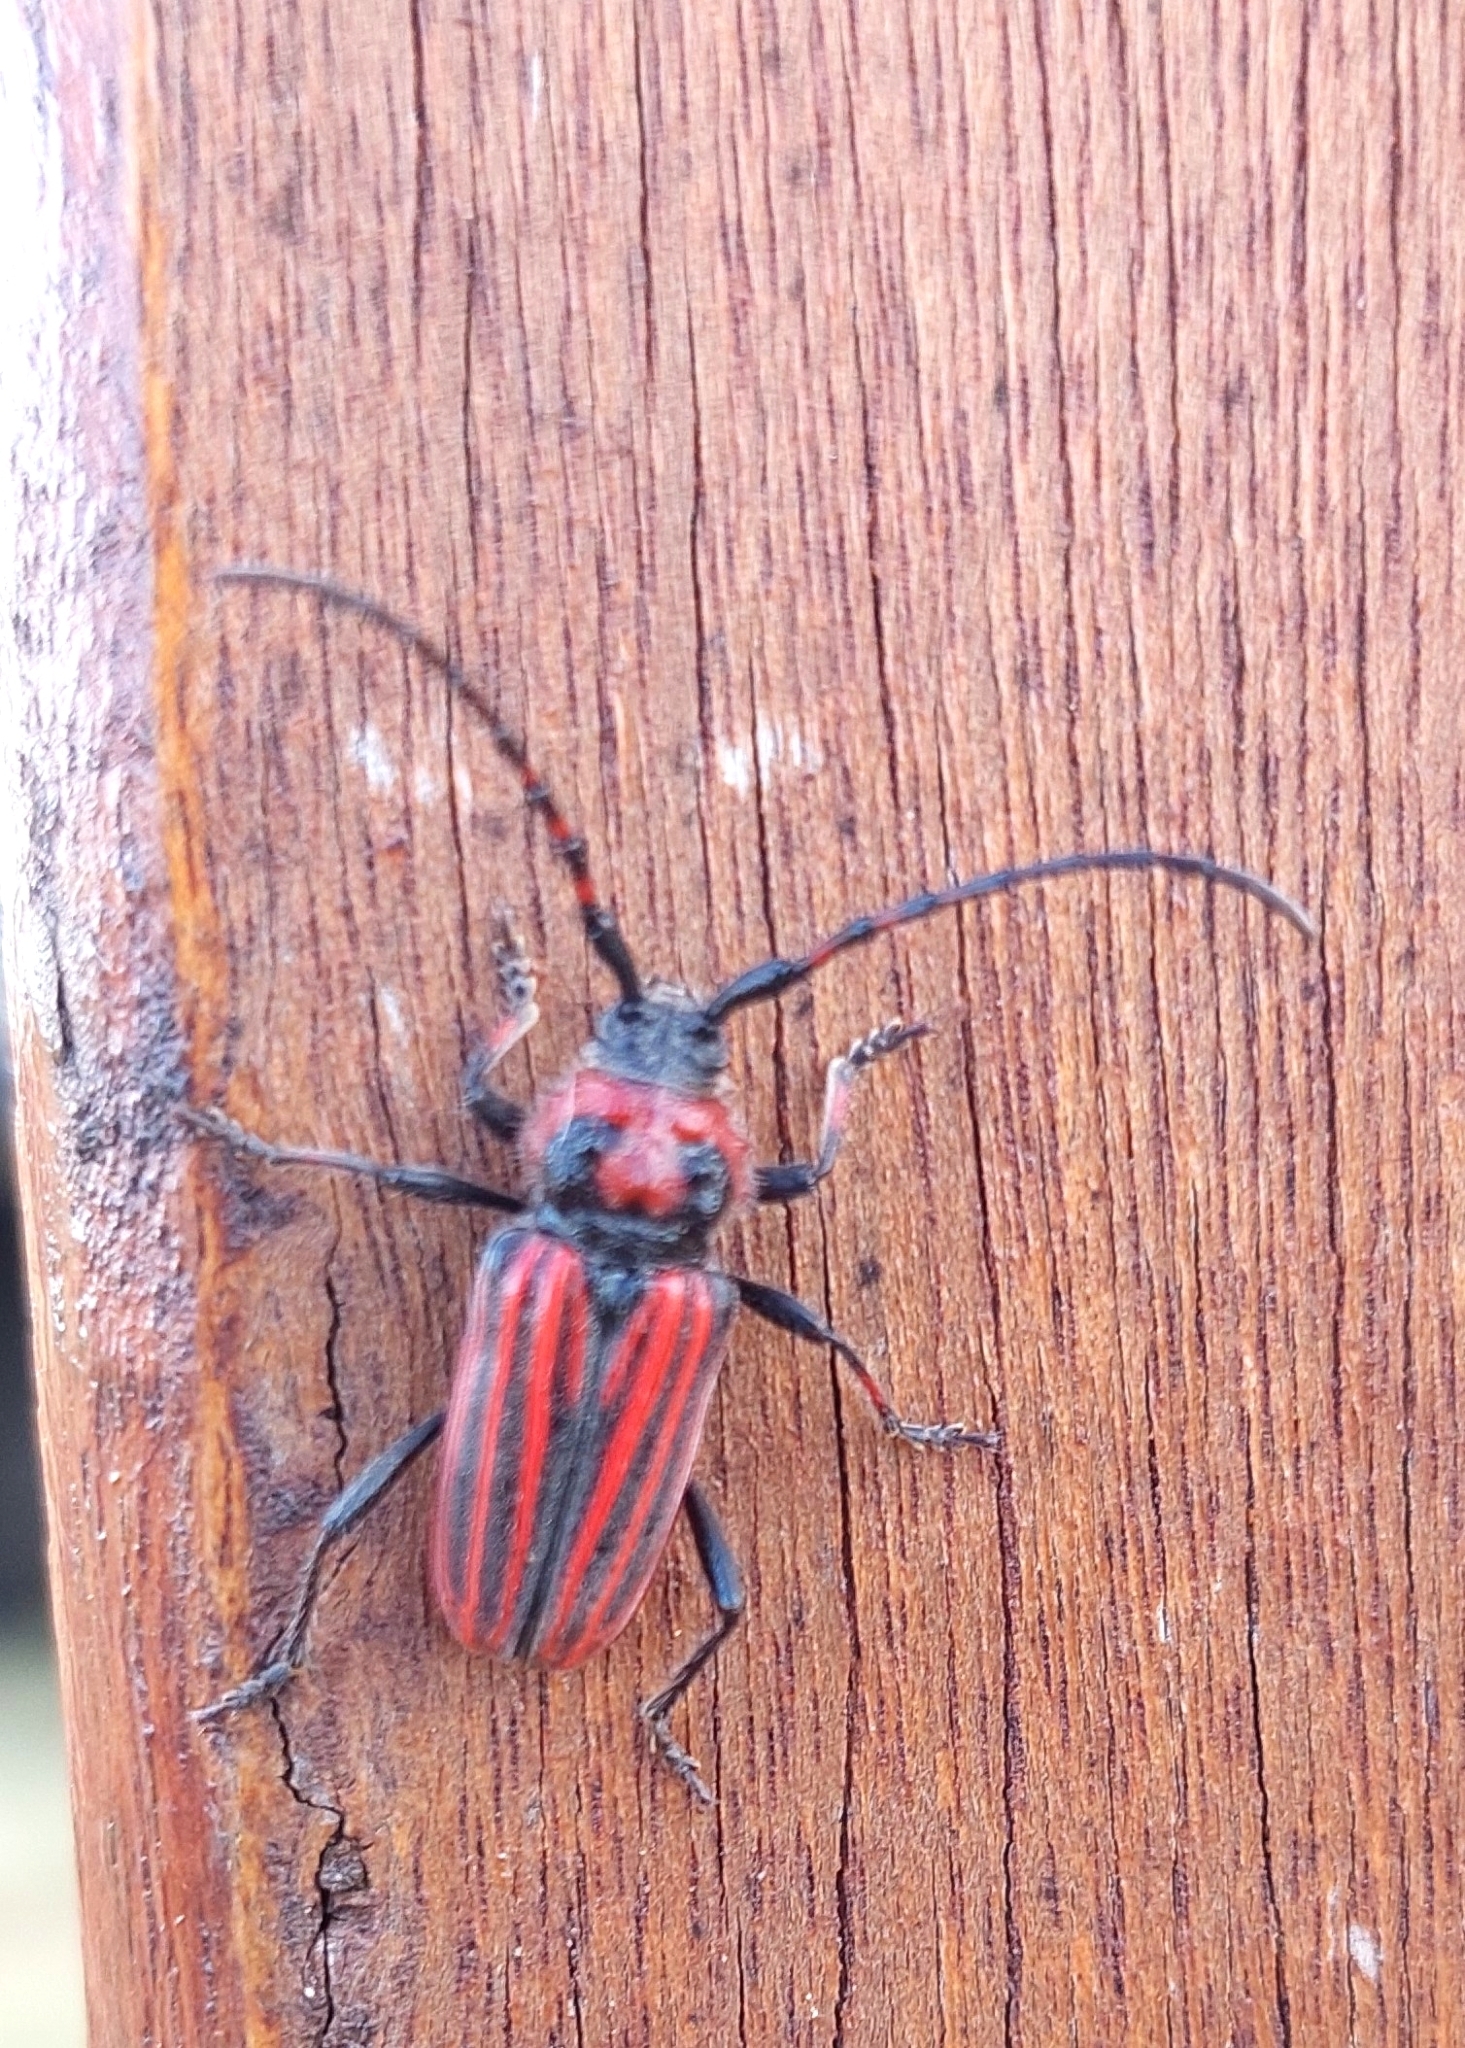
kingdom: Animalia
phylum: Arthropoda
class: Insecta
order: Coleoptera
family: Cerambycidae
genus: Eriocharis
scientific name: Eriocharis richardii
